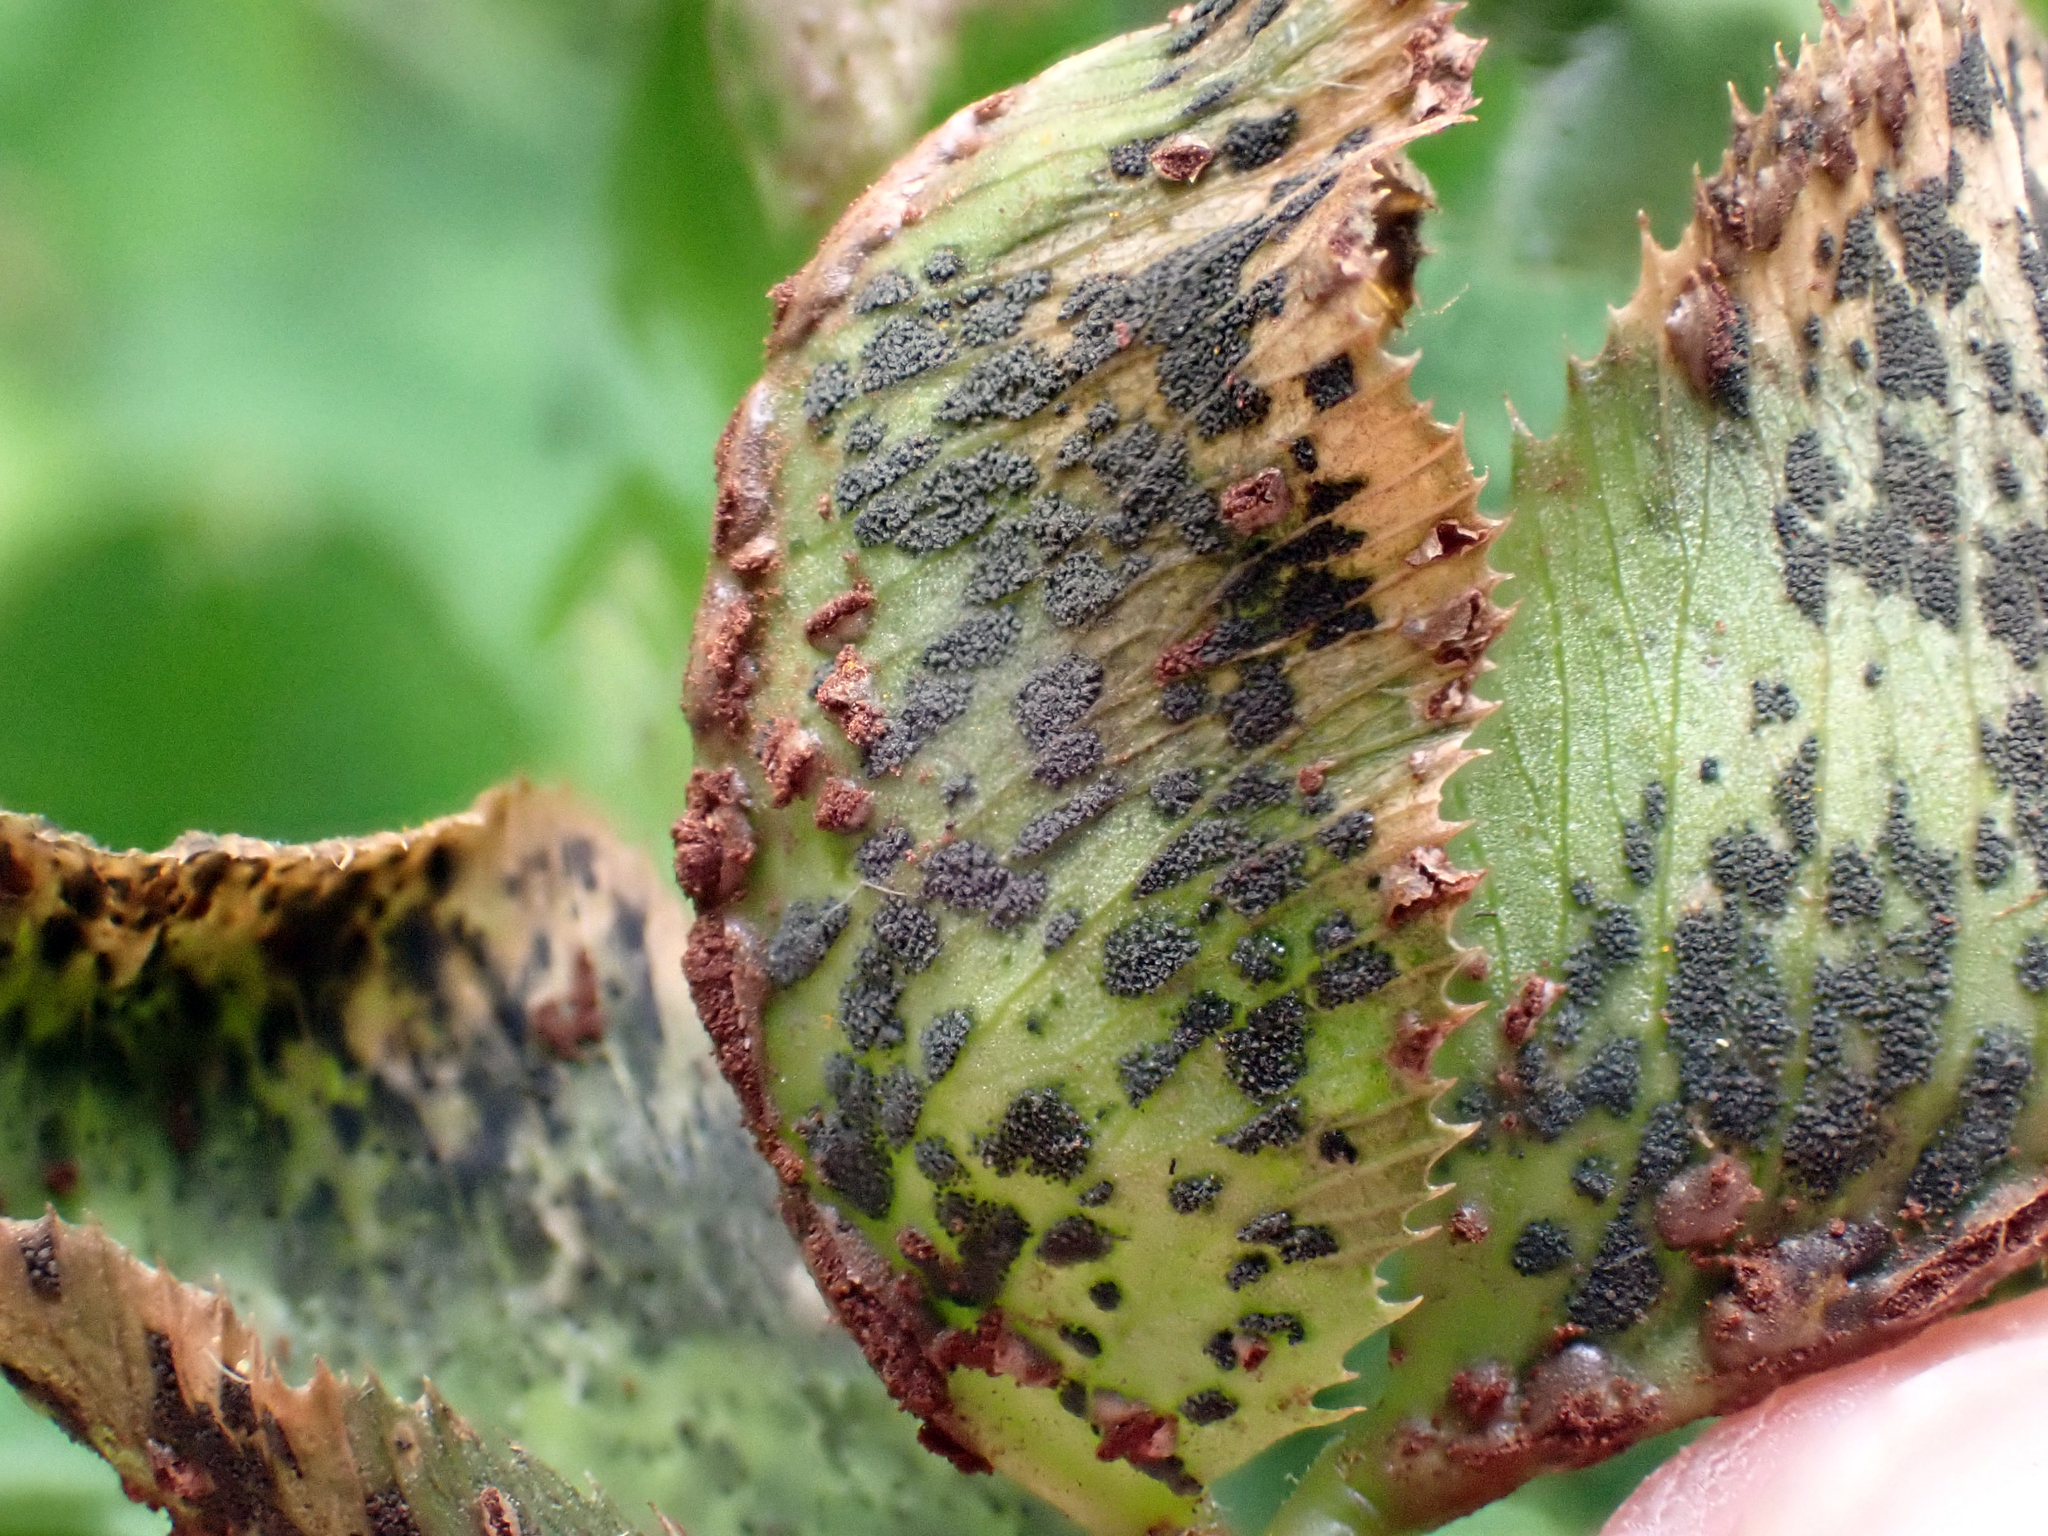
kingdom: Fungi
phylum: Ascomycota
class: Dothideomycetes
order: Mycosphaerellales
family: Mycosphaerellaceae
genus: Polythrincium
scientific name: Polythrincium trifolii
